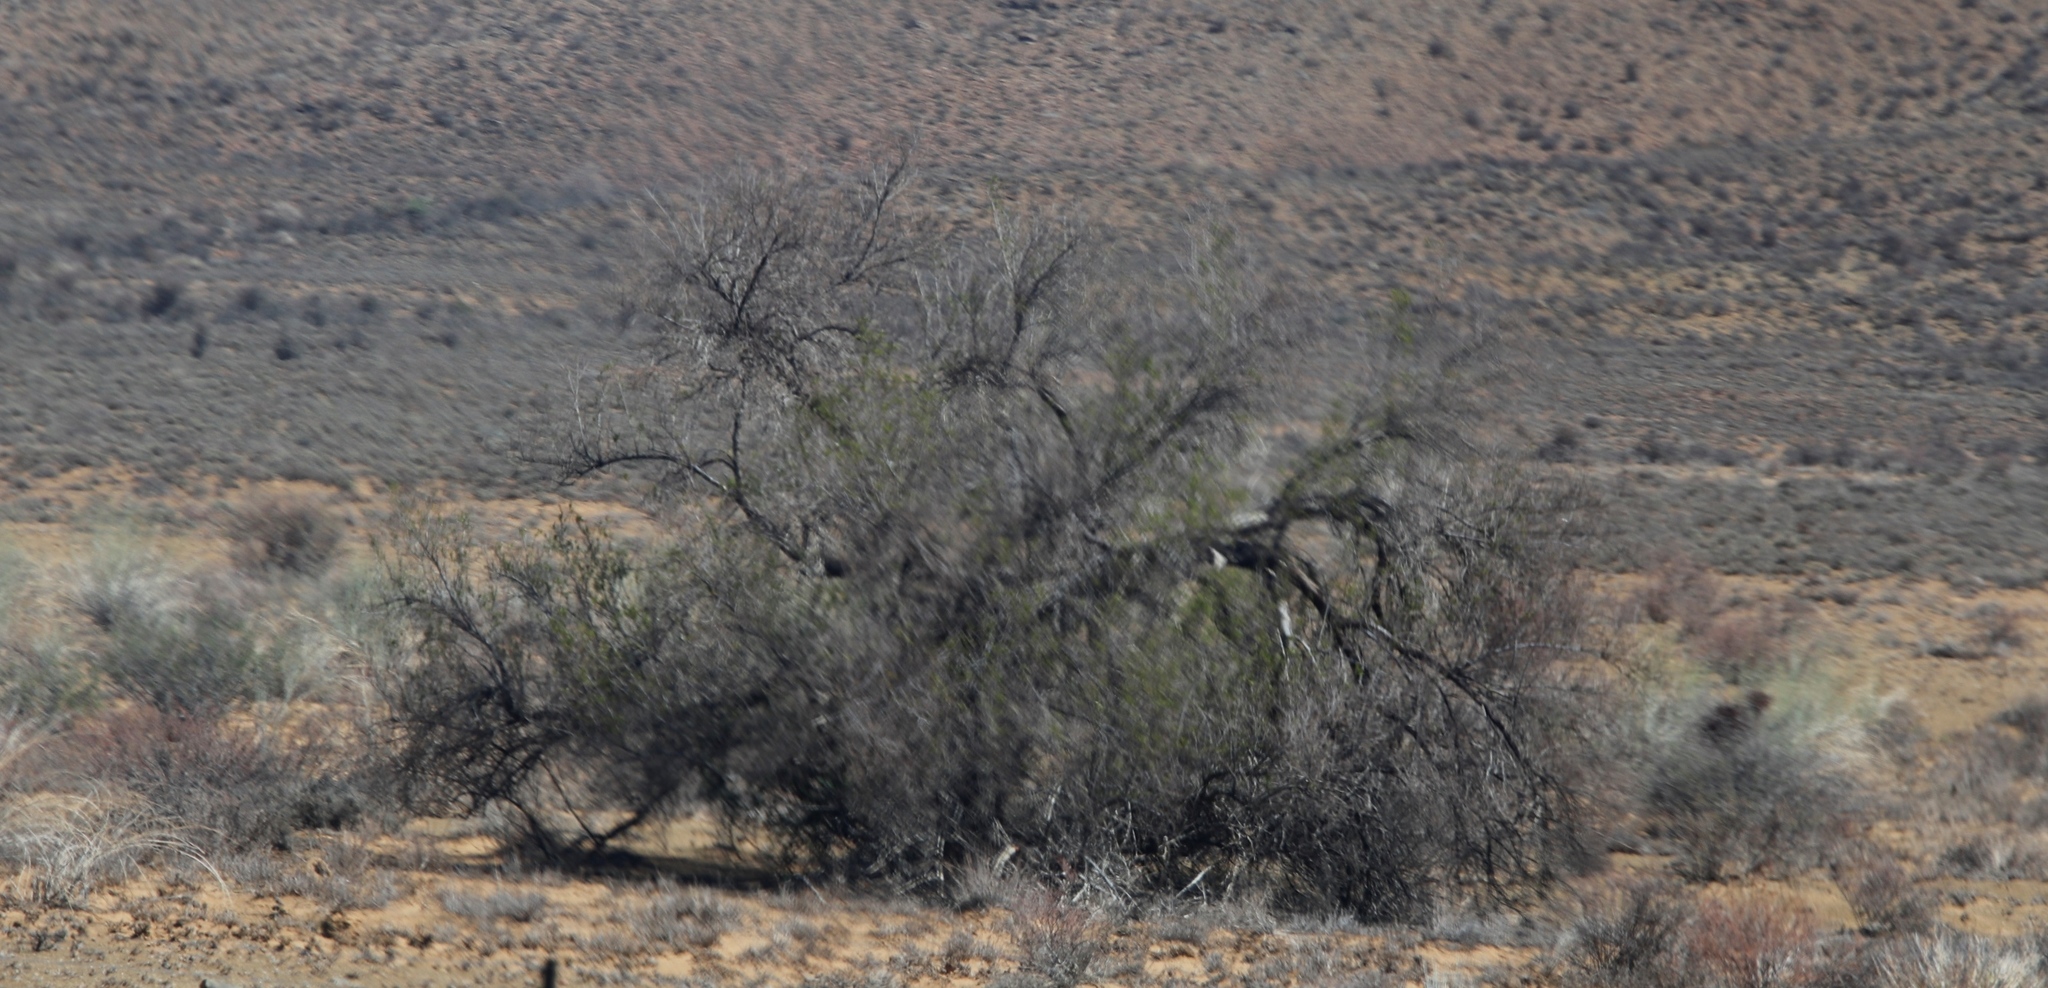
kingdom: Plantae
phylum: Tracheophyta
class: Magnoliopsida
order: Fabales
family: Fabaceae
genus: Vachellia
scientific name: Vachellia karroo
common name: Sweet thorn
